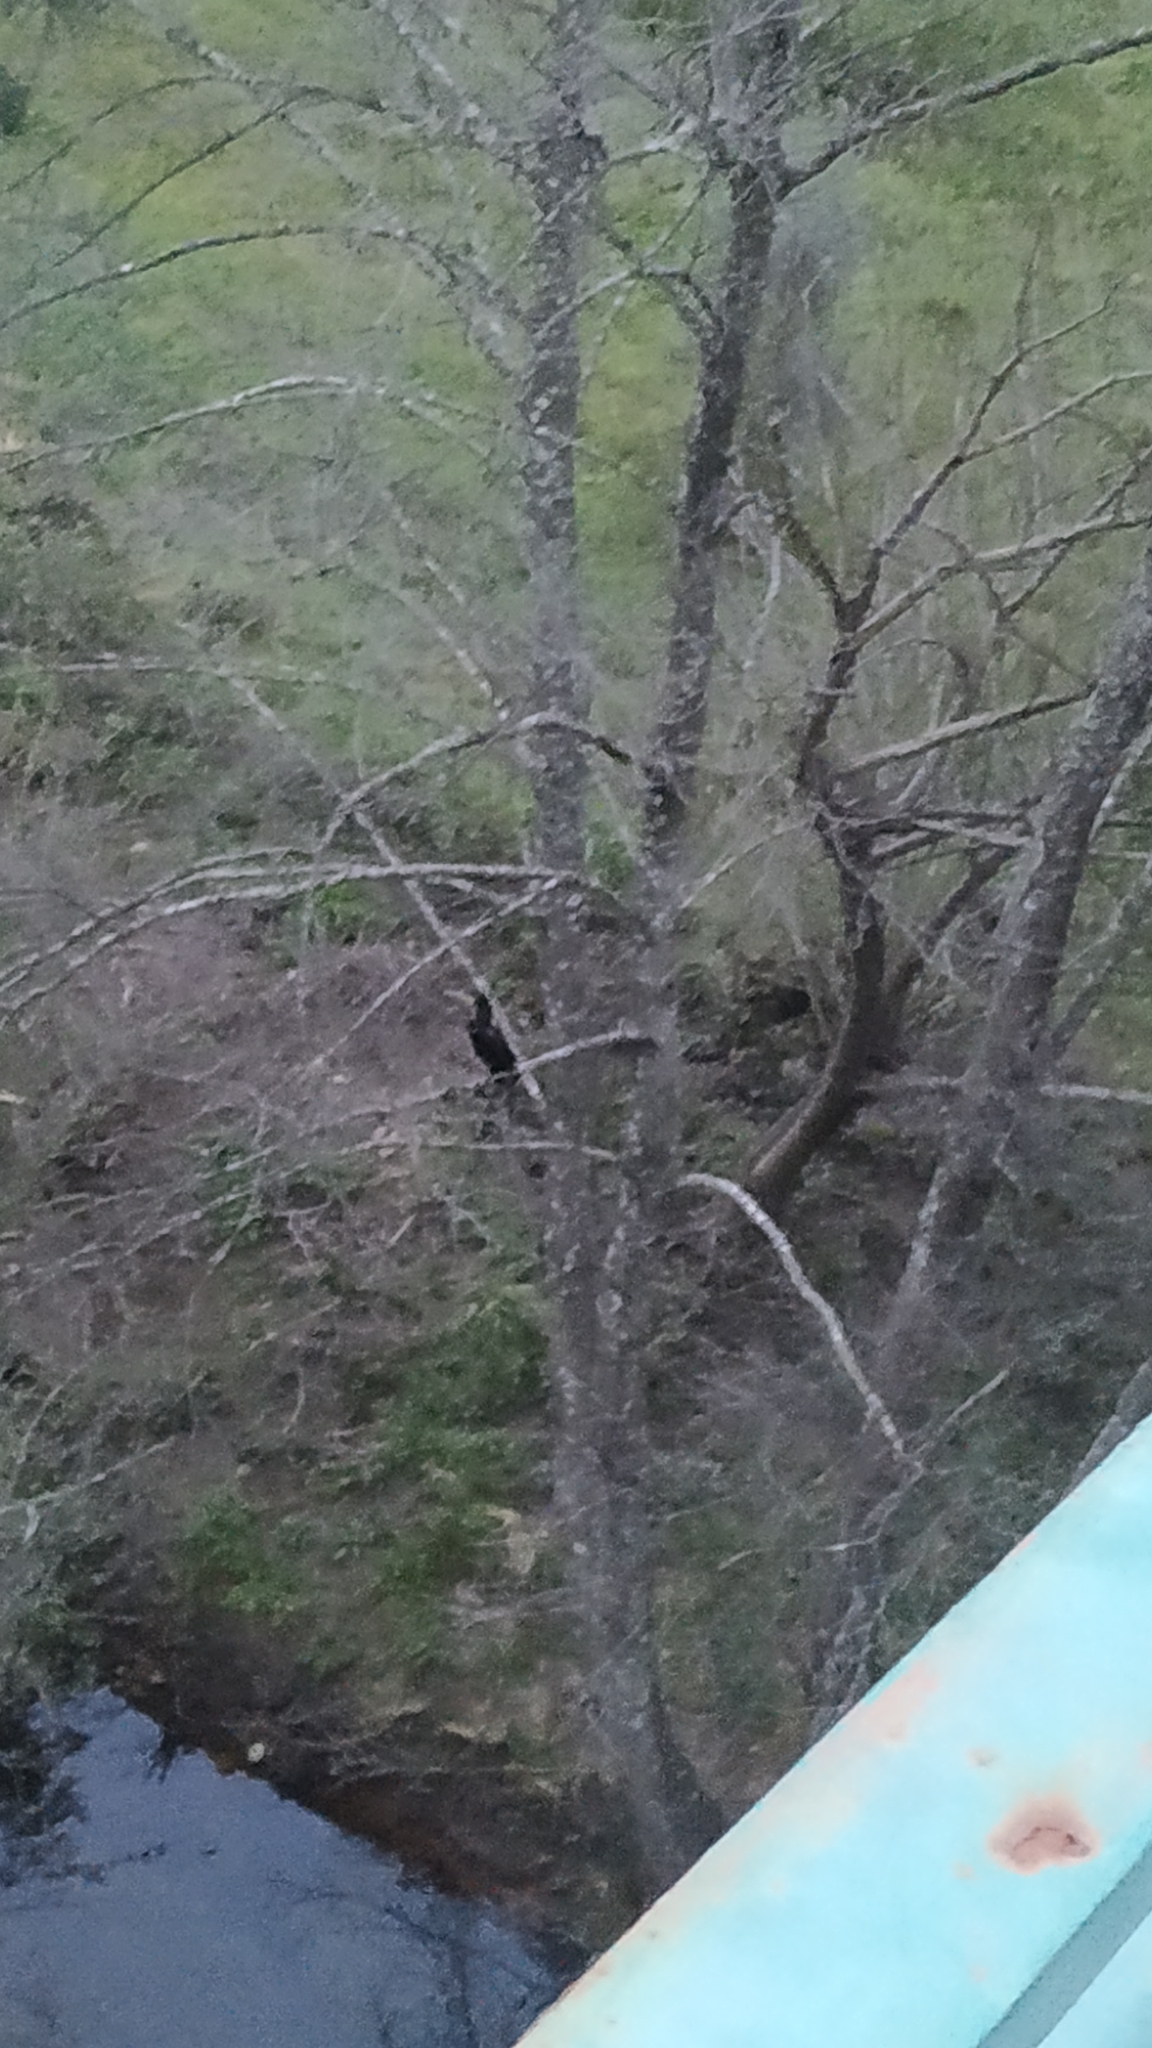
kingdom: Animalia
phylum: Chordata
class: Aves
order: Suliformes
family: Phalacrocoracidae
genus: Phalacrocorax
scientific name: Phalacrocorax carbo
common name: Great cormorant
